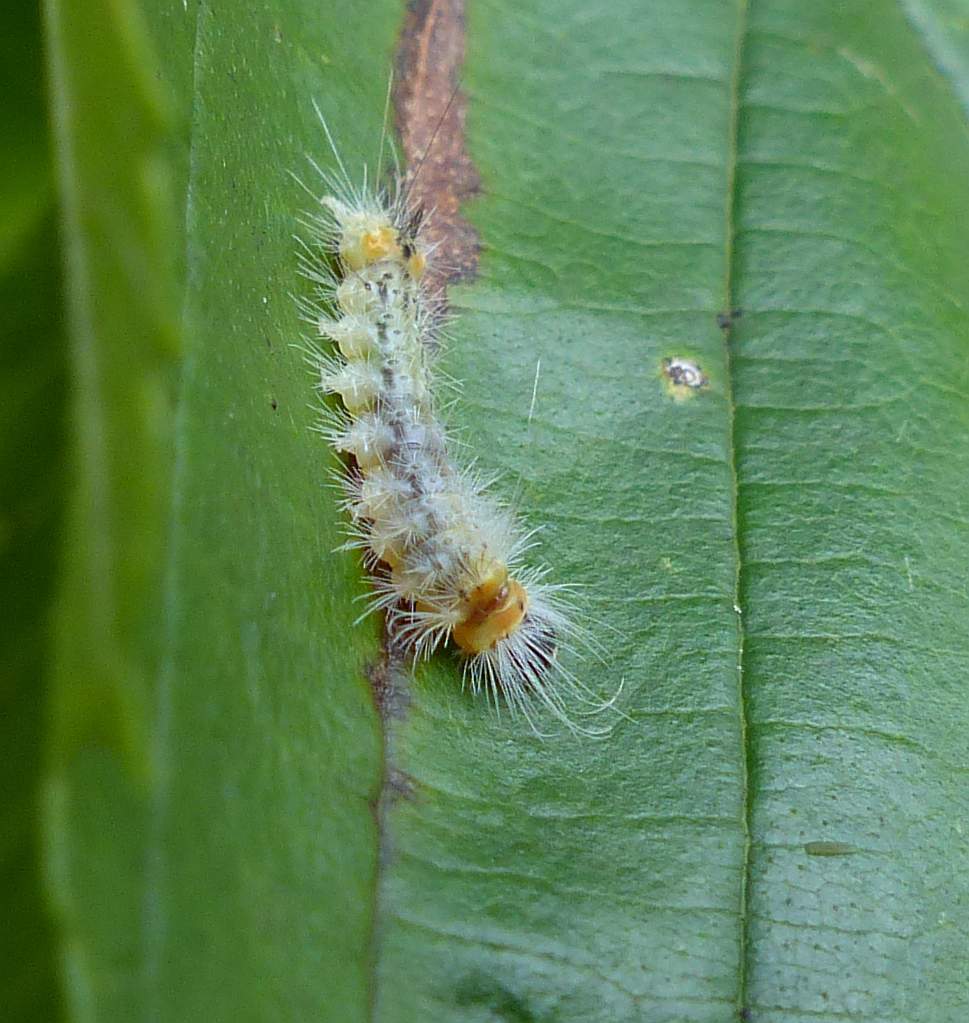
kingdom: Animalia
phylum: Arthropoda
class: Insecta
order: Lepidoptera
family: Erebidae
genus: Halysidota
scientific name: Halysidota tessellaris
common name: Banded tussock moth
